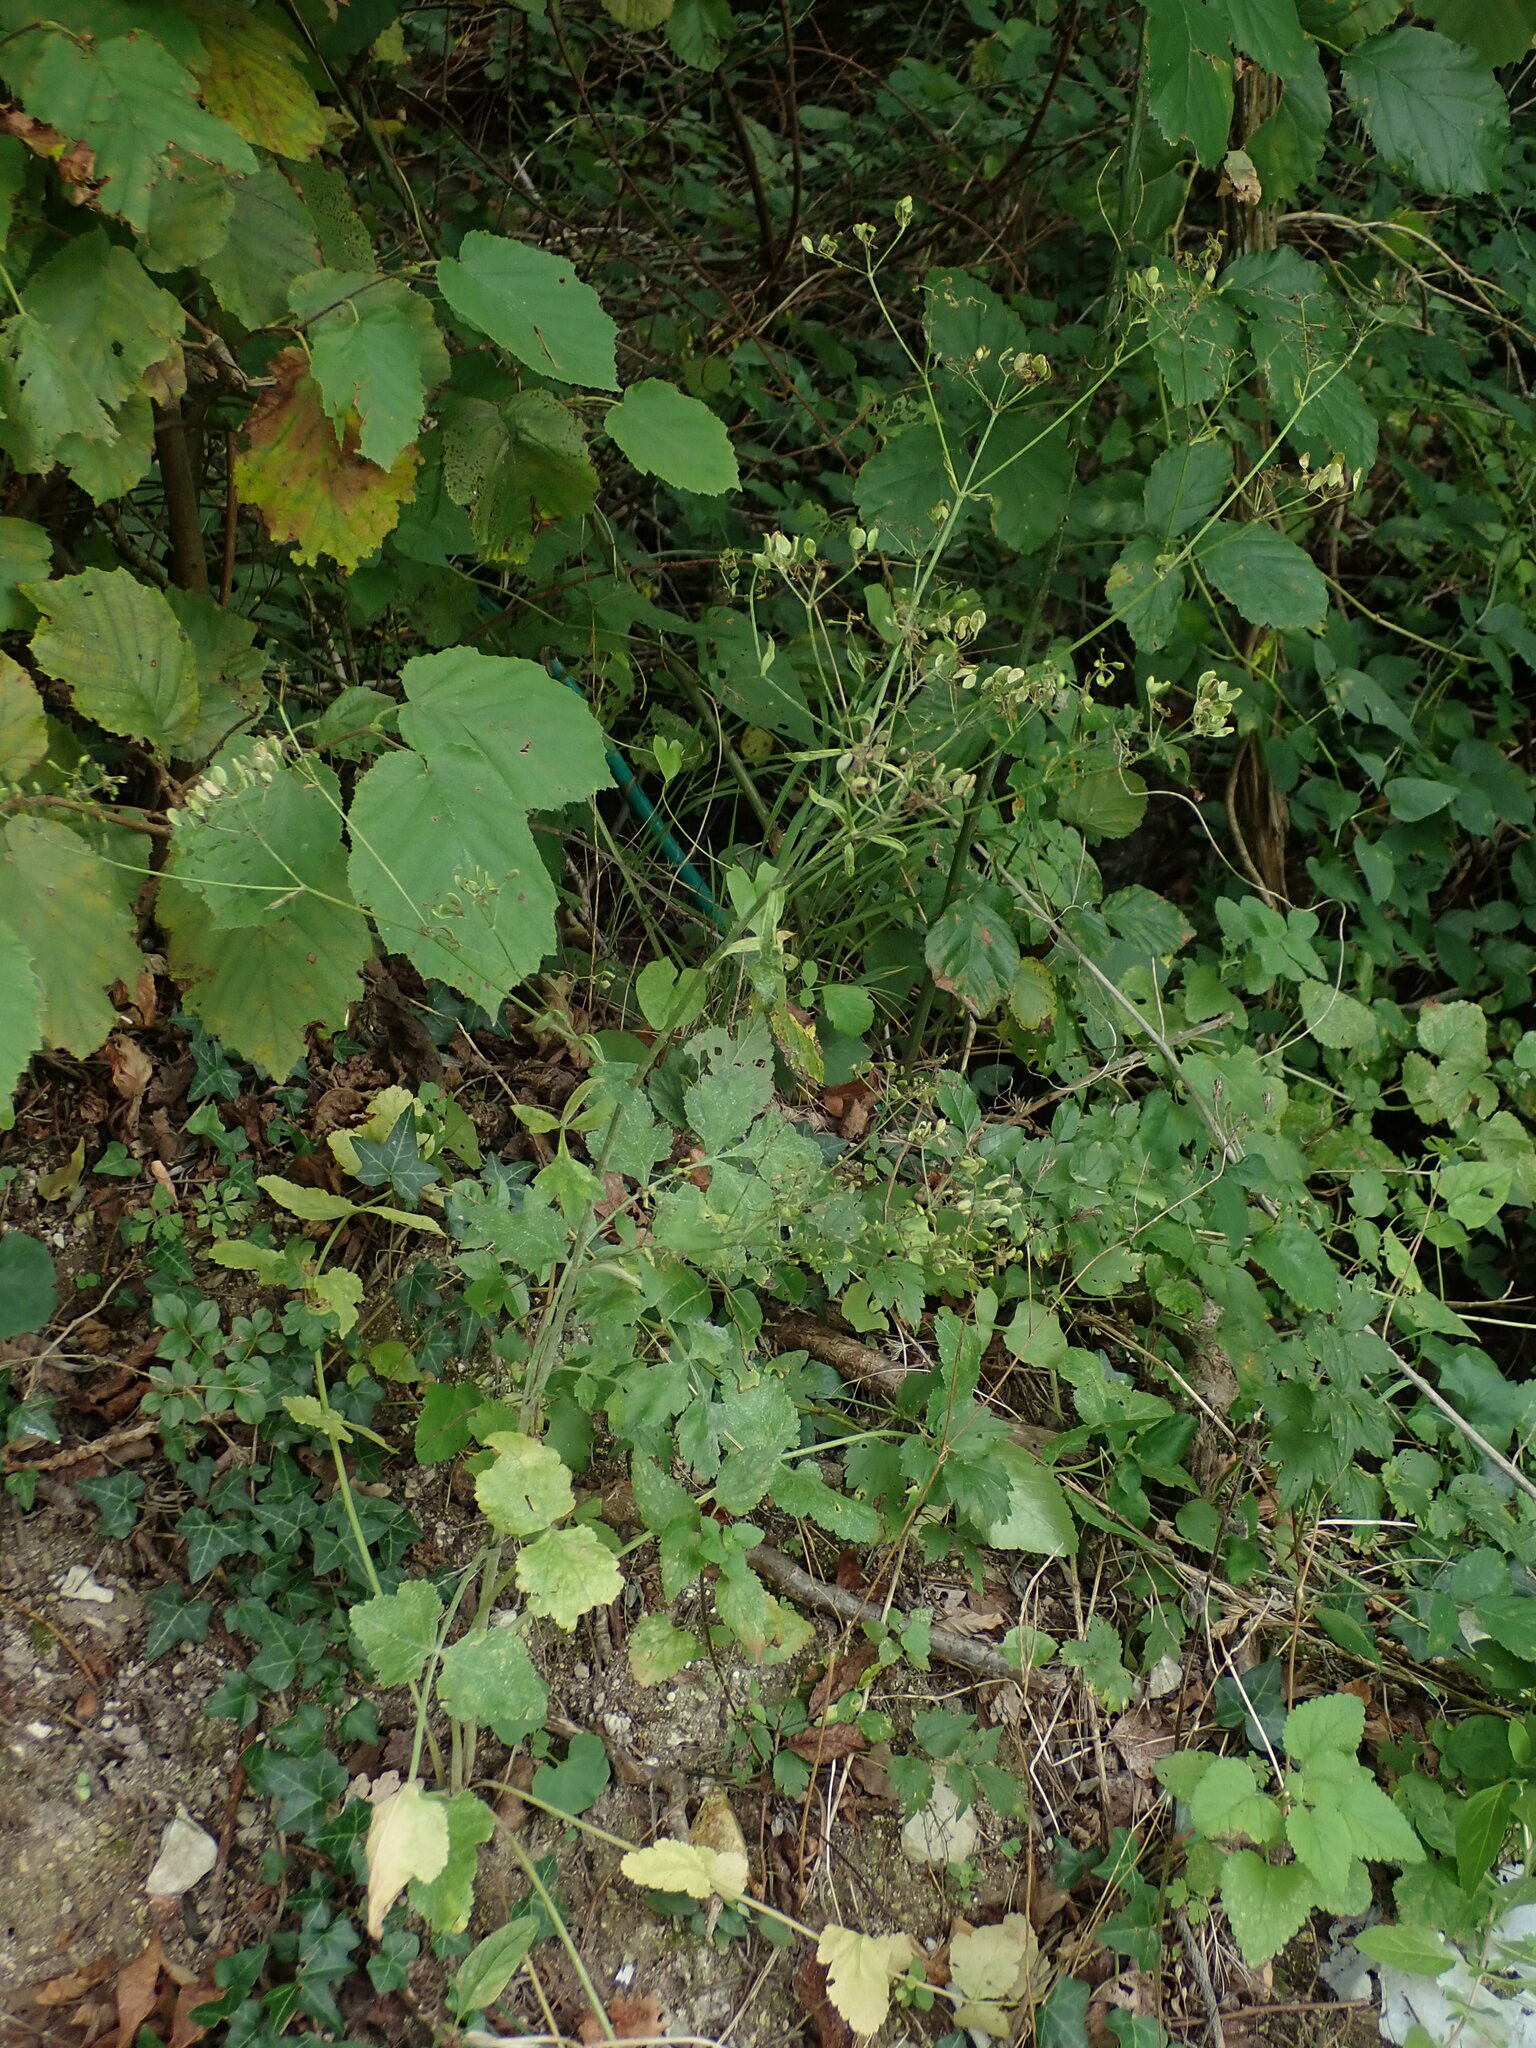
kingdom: Plantae
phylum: Tracheophyta
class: Magnoliopsida
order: Apiales
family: Apiaceae
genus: Pastinaca
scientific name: Pastinaca sativa
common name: Wild parsnip
